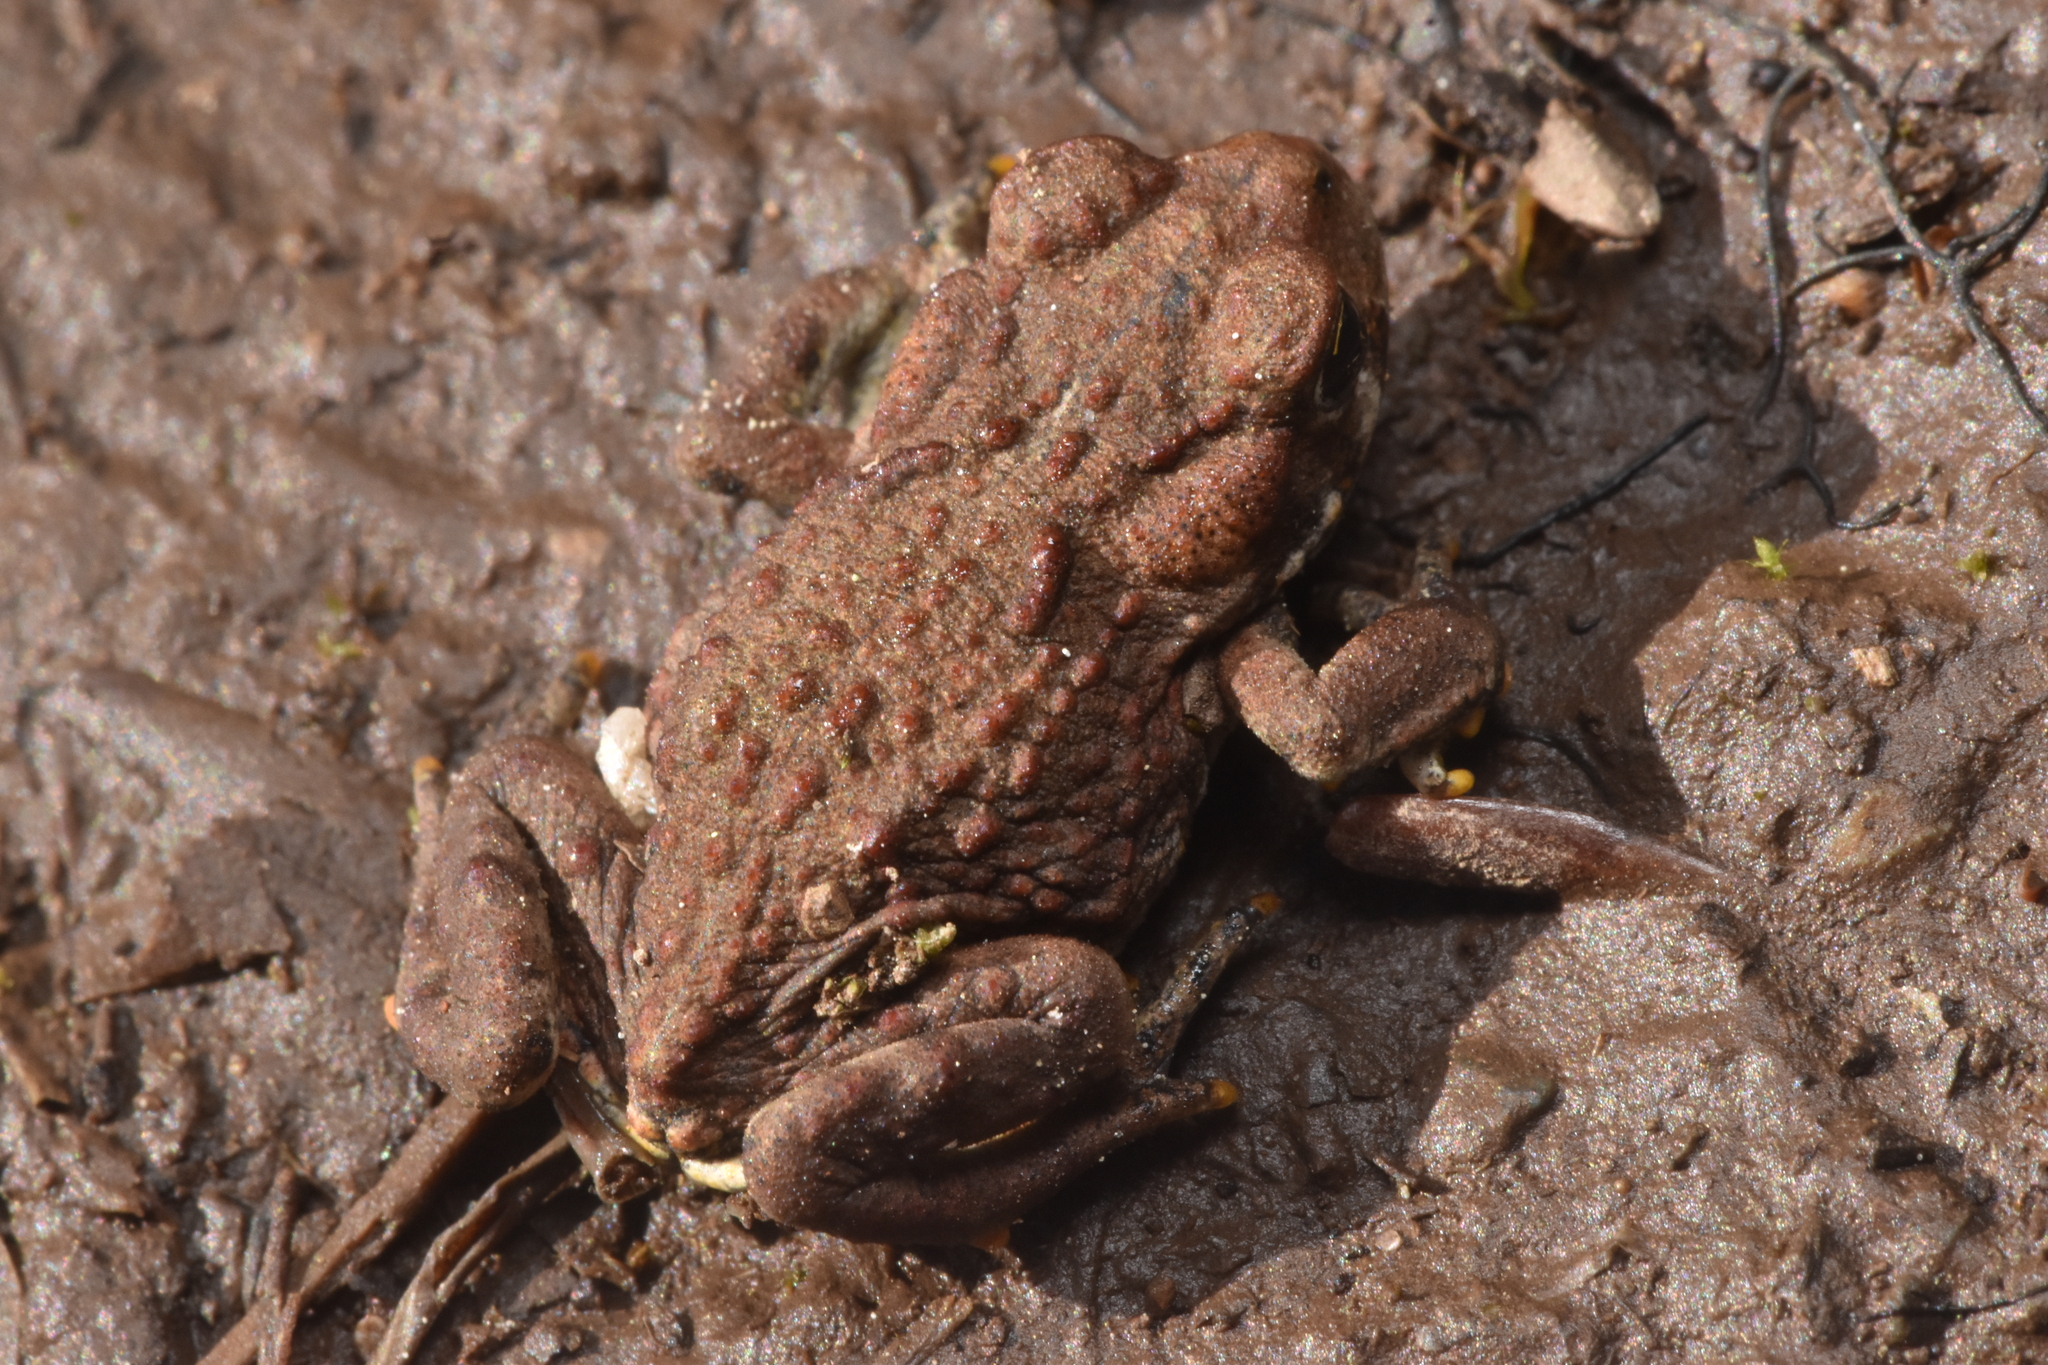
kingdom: Animalia
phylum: Chordata
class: Amphibia
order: Anura
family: Bufonidae
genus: Anaxyrus
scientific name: Anaxyrus boreas
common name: Western toad
